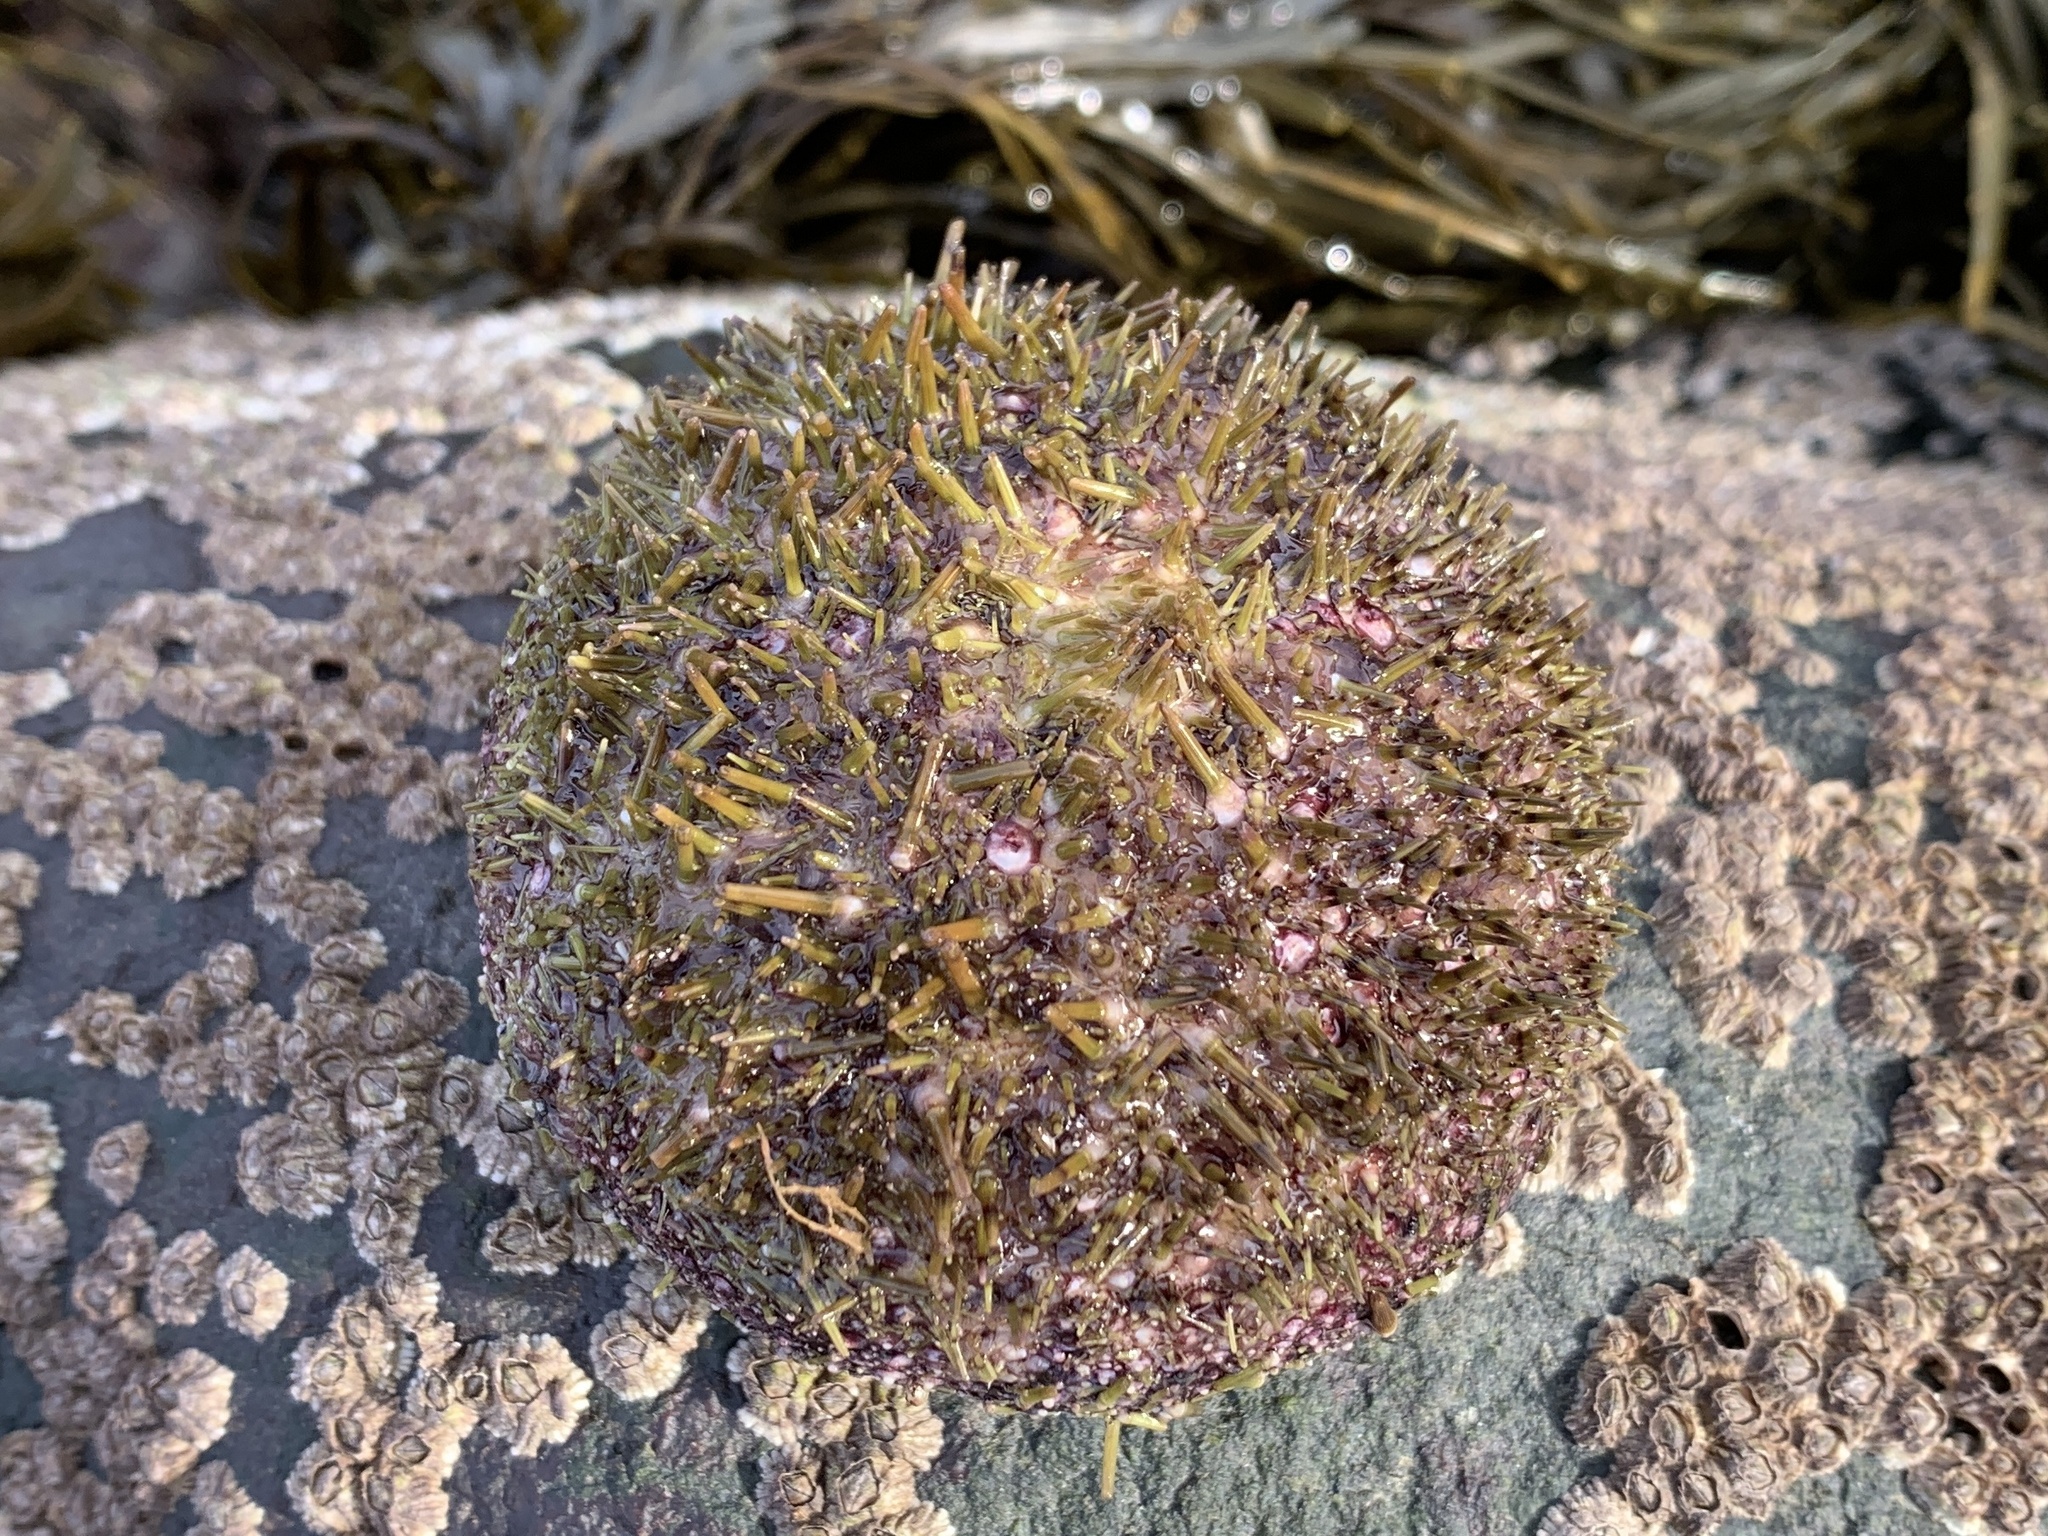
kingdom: Animalia
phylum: Echinodermata
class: Echinoidea
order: Camarodonta
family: Strongylocentrotidae
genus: Strongylocentrotus
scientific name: Strongylocentrotus droebachiensis
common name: Northern sea urchin
